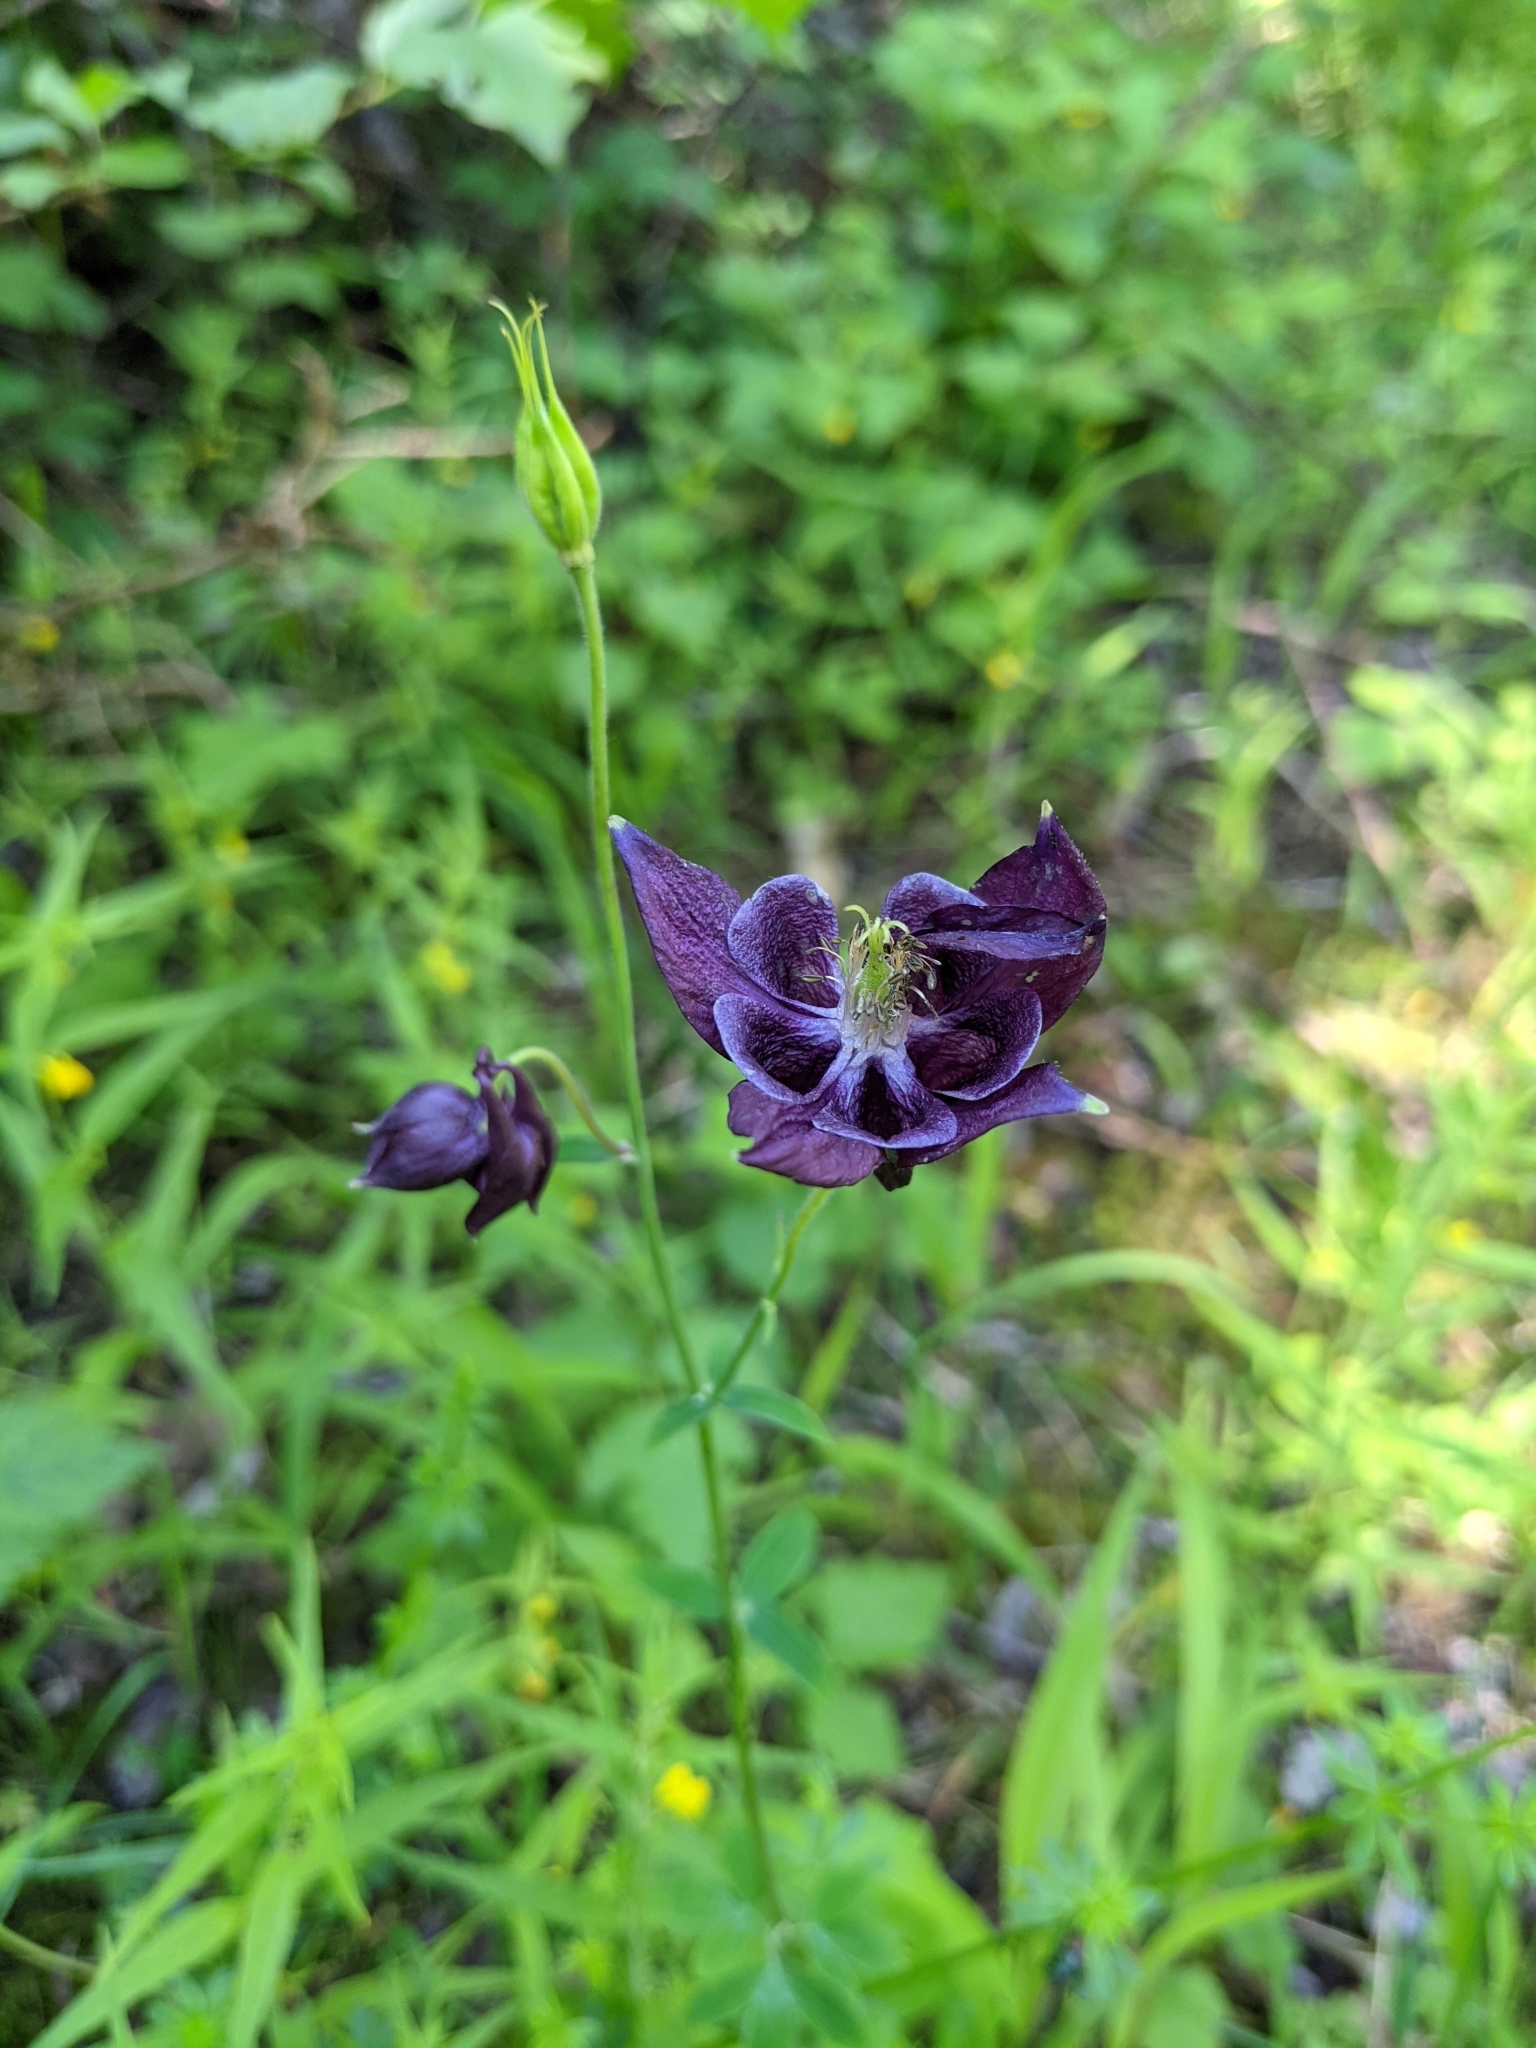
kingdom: Plantae
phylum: Tracheophyta
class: Magnoliopsida
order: Ranunculales
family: Ranunculaceae
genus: Aquilegia
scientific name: Aquilegia atrata
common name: Dark columbine
